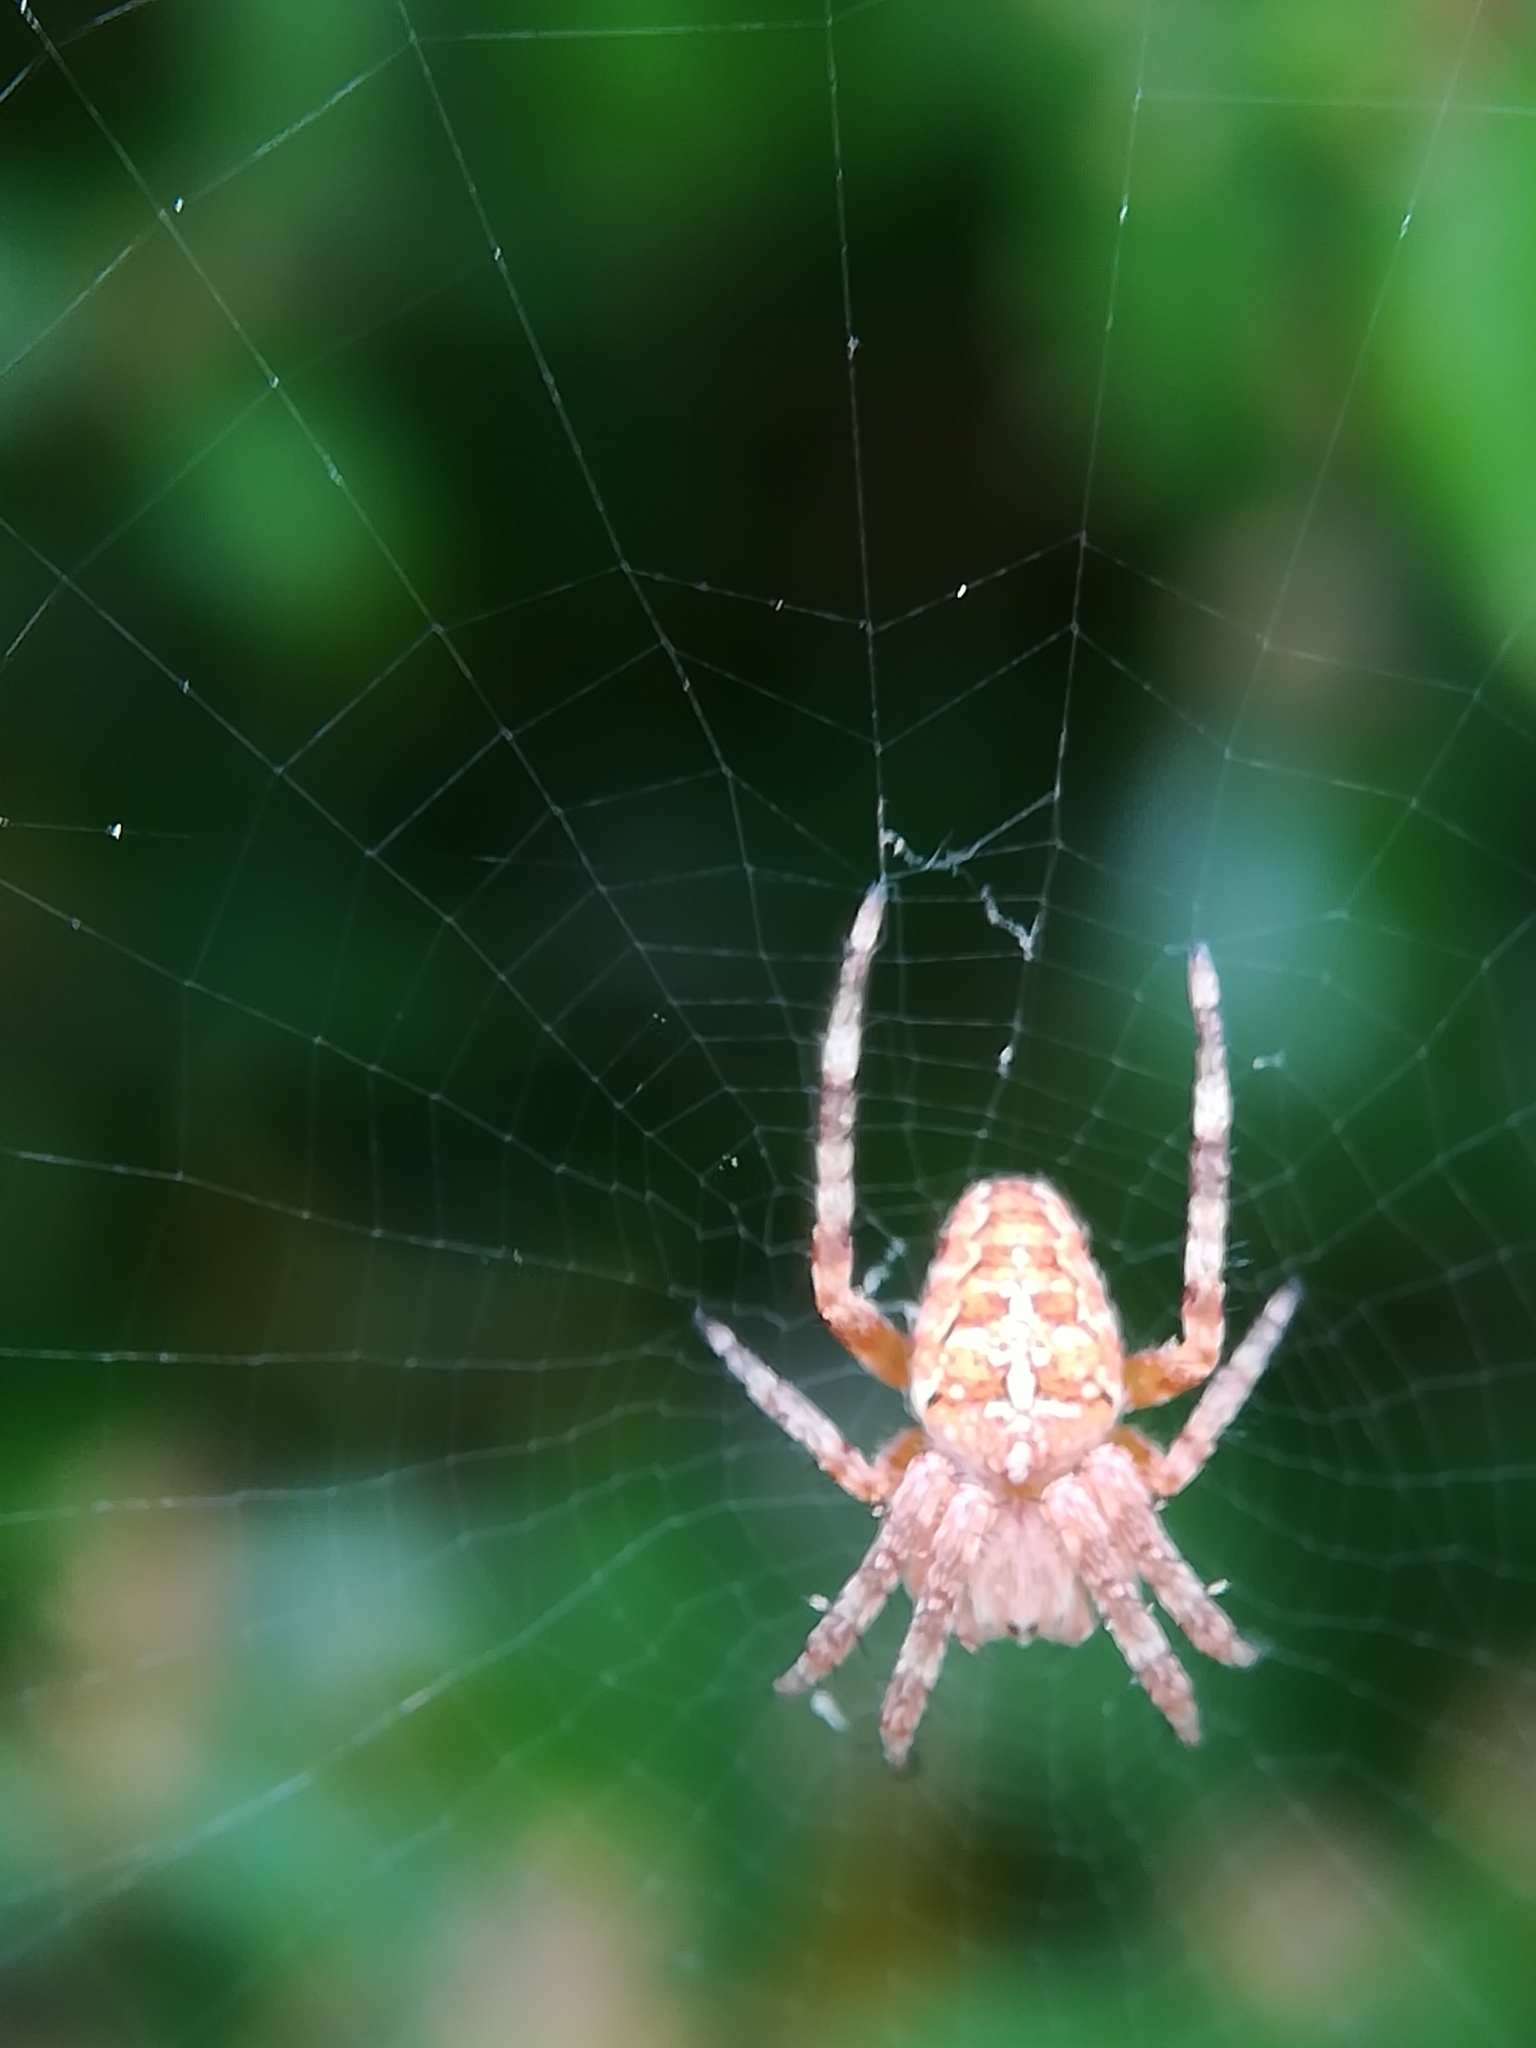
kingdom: Animalia
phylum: Arthropoda
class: Arachnida
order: Araneae
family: Araneidae
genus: Araneus
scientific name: Araneus diadematus
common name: Cross orbweaver
